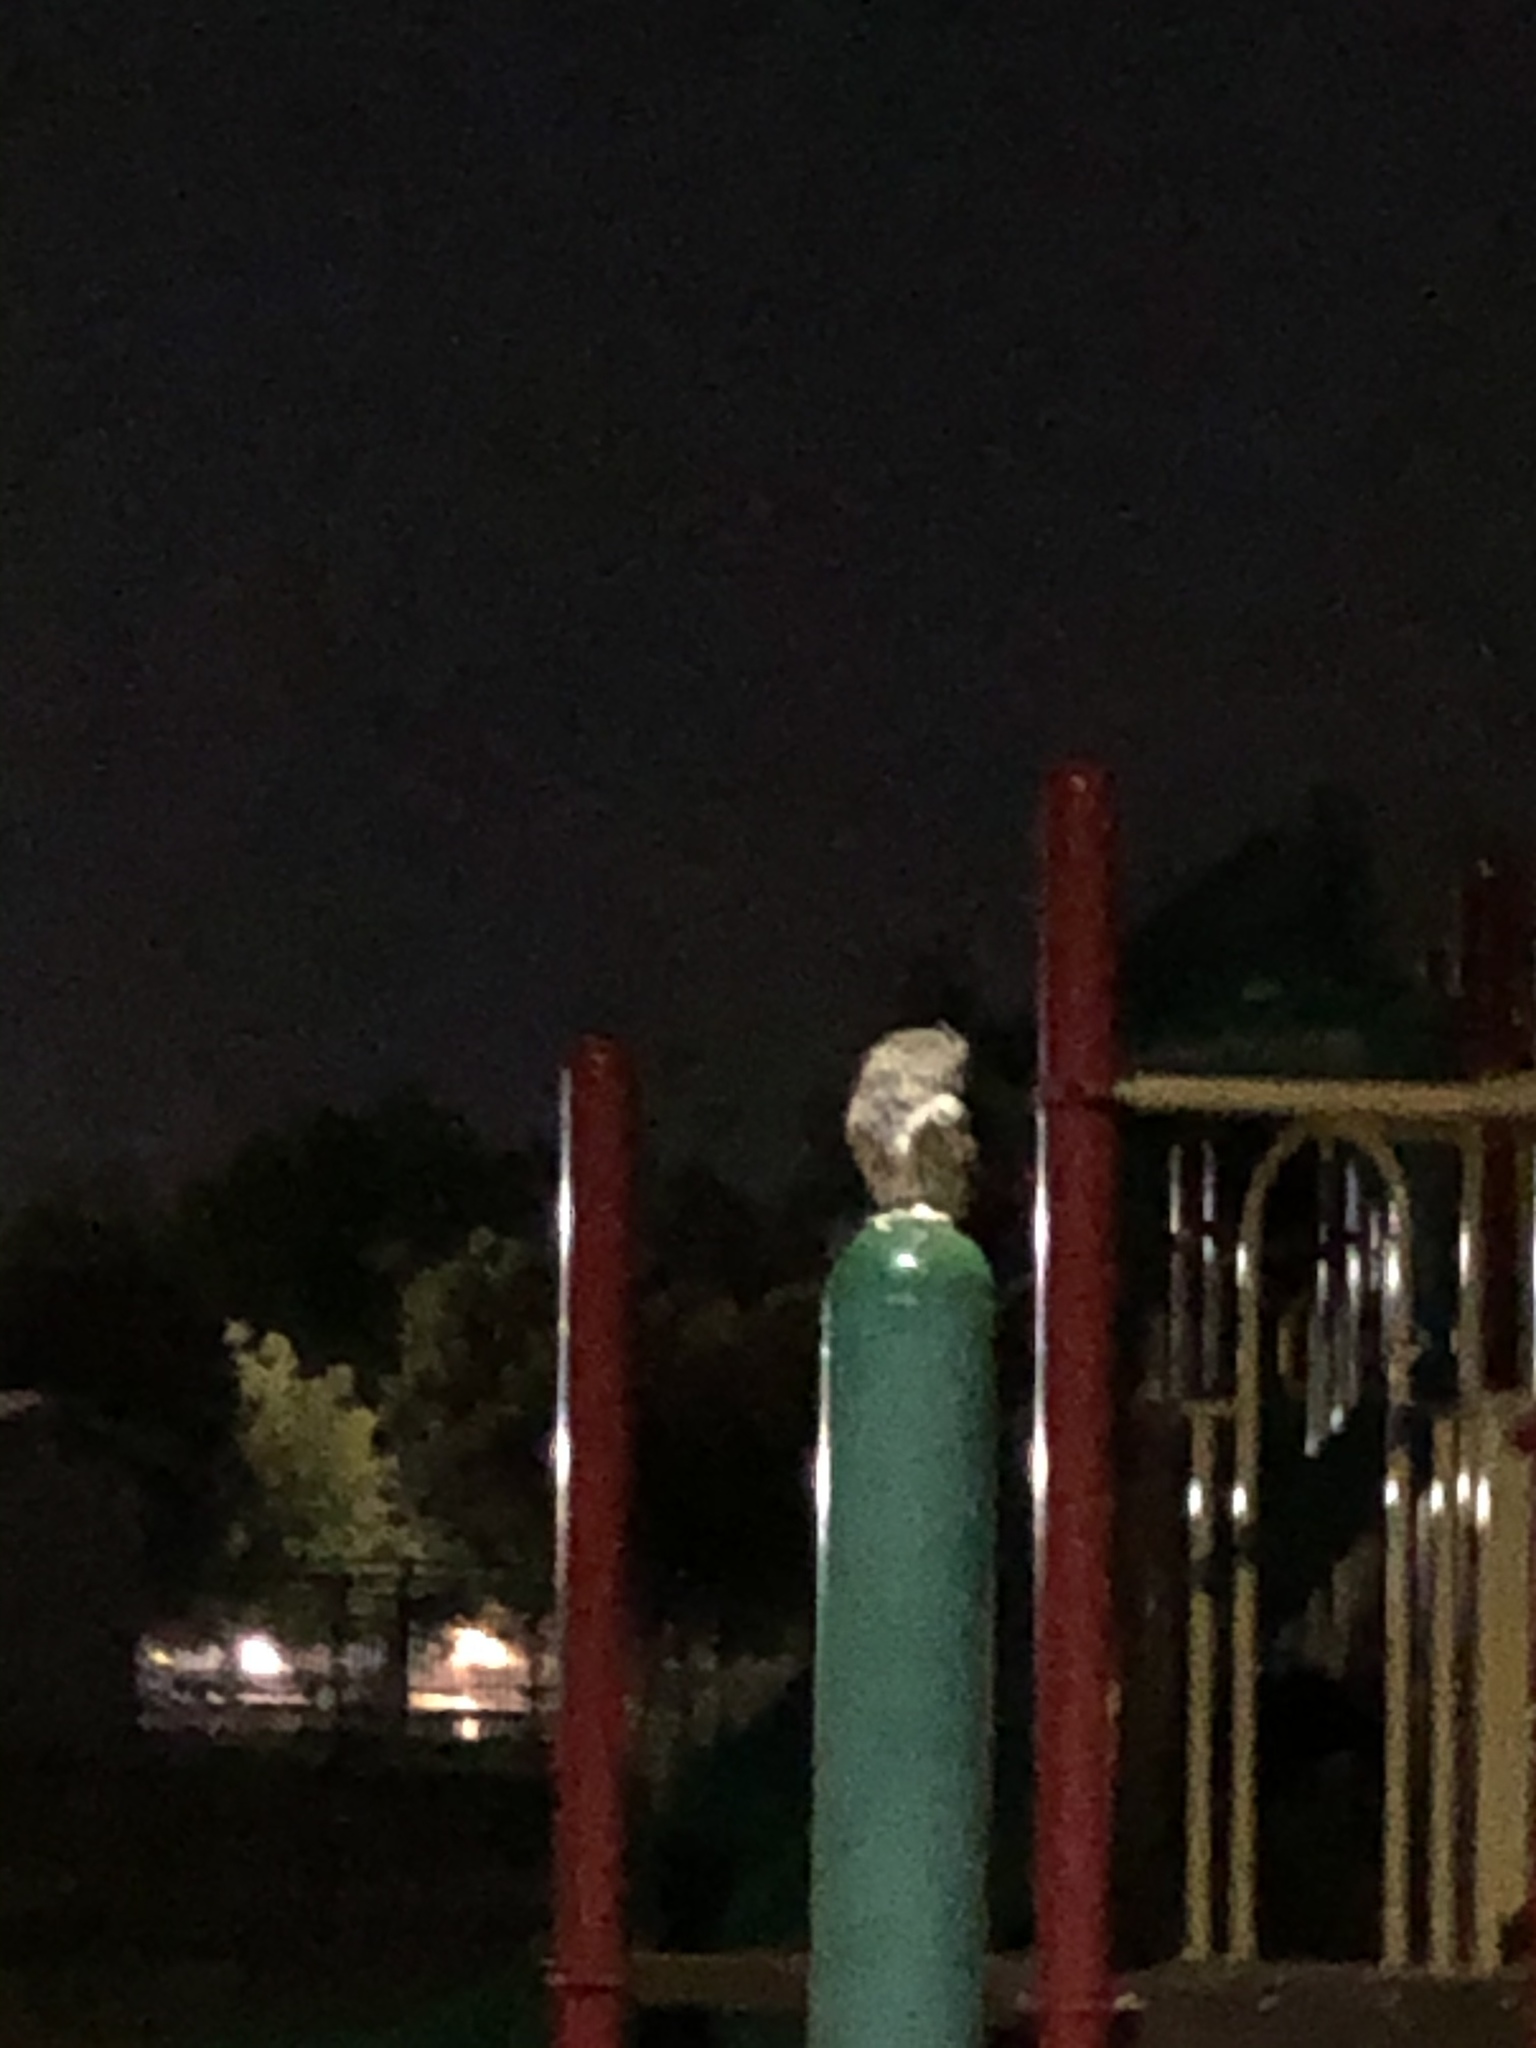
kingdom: Animalia
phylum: Chordata
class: Aves
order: Strigiformes
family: Strigidae
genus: Megascops
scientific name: Megascops kennicottii
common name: Western screech-owl
